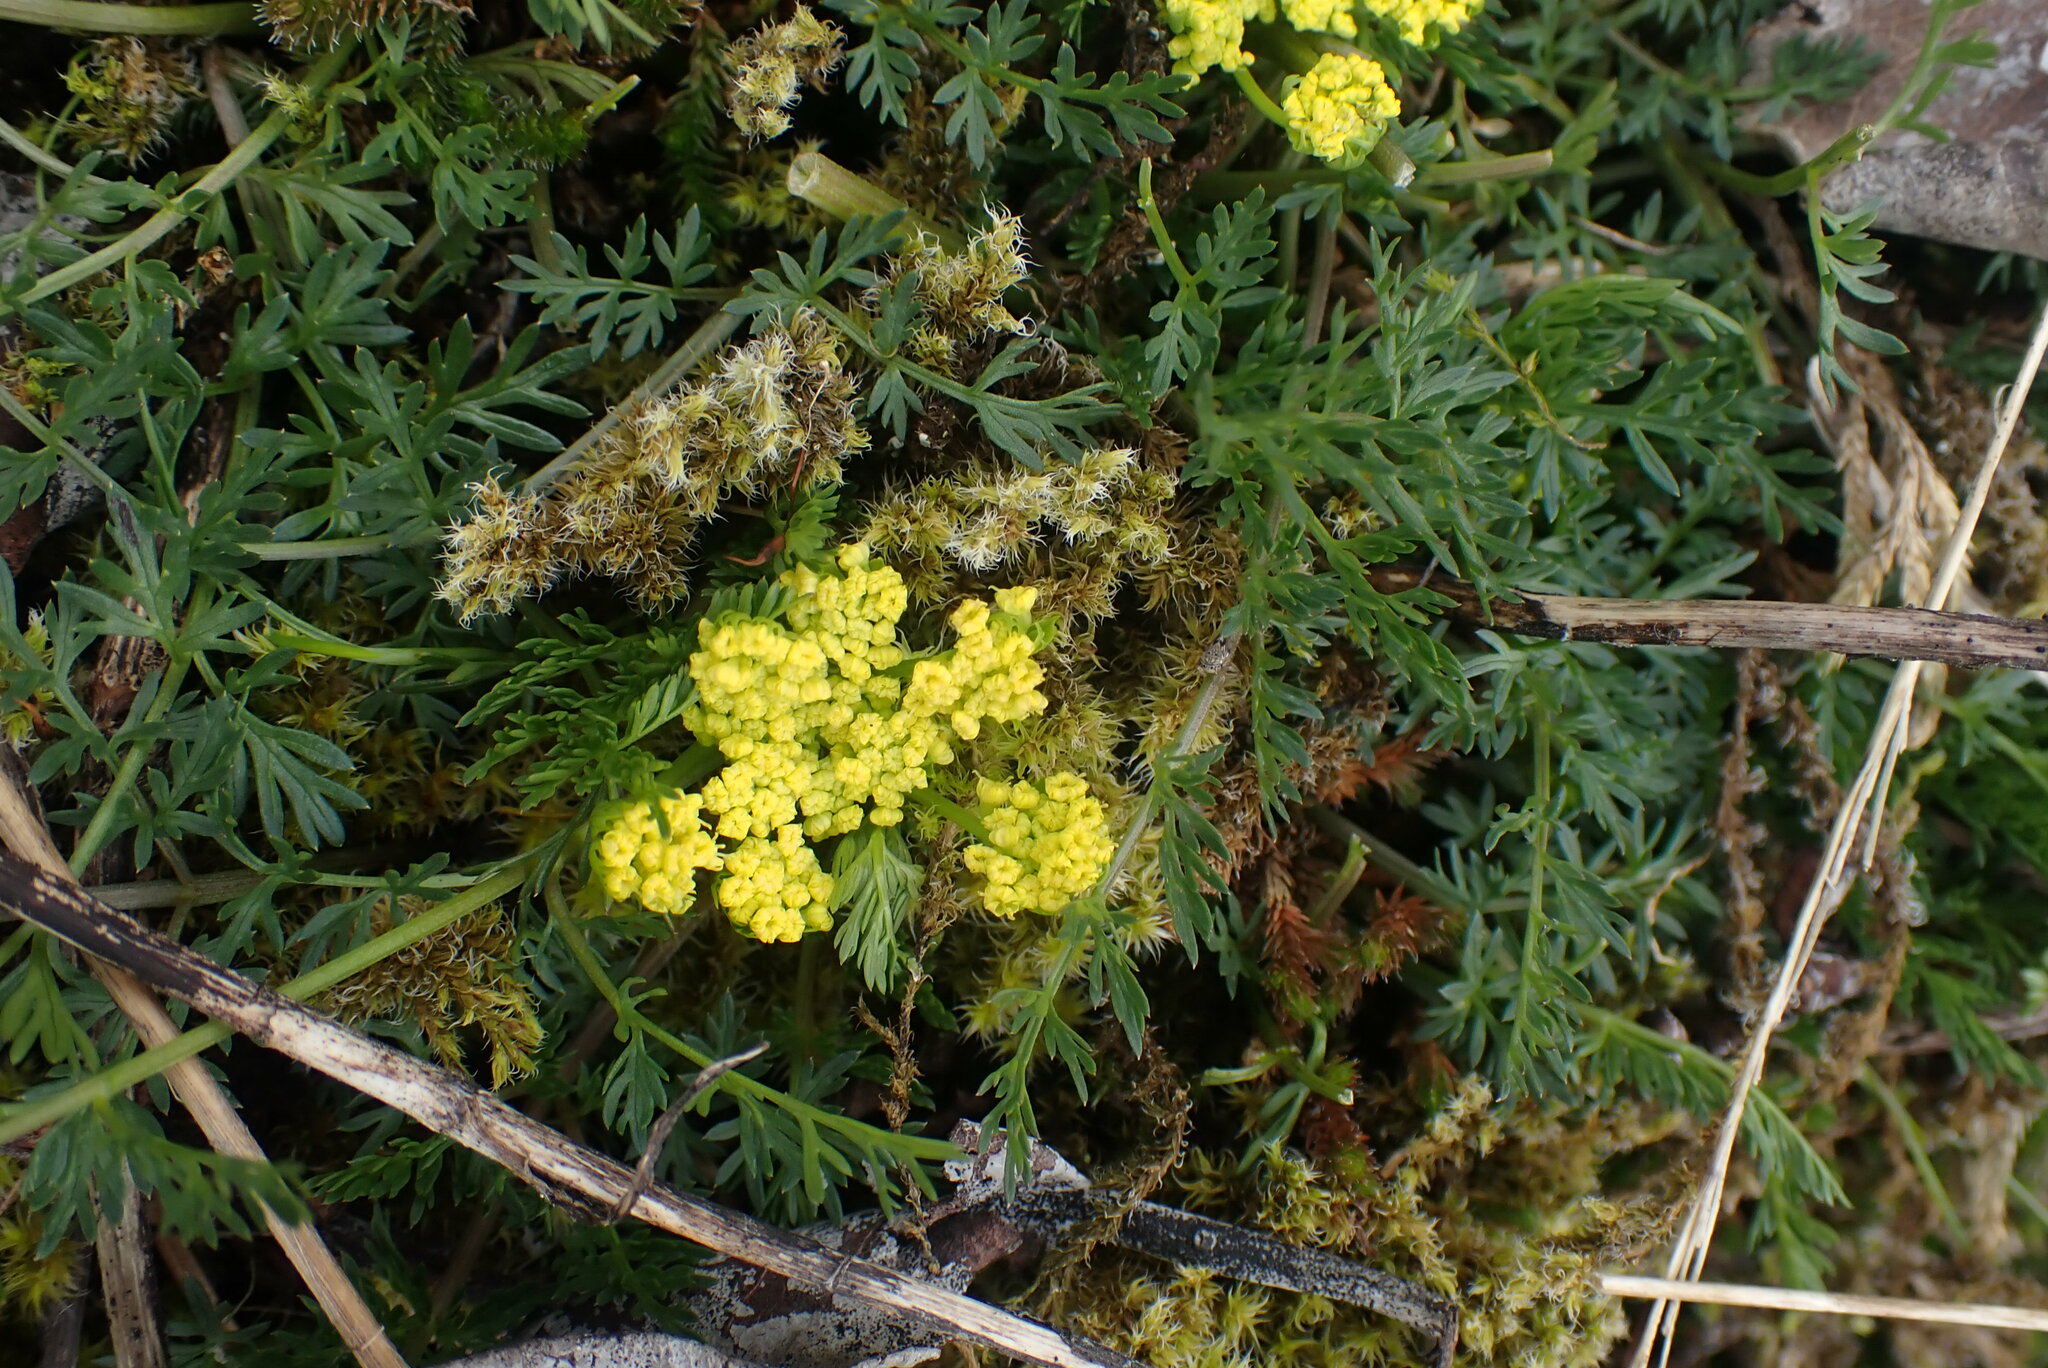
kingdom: Plantae
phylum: Tracheophyta
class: Magnoliopsida
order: Apiales
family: Apiaceae
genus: Lomatium
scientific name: Lomatium utriculatum
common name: Fine-leaf desert-parsley
